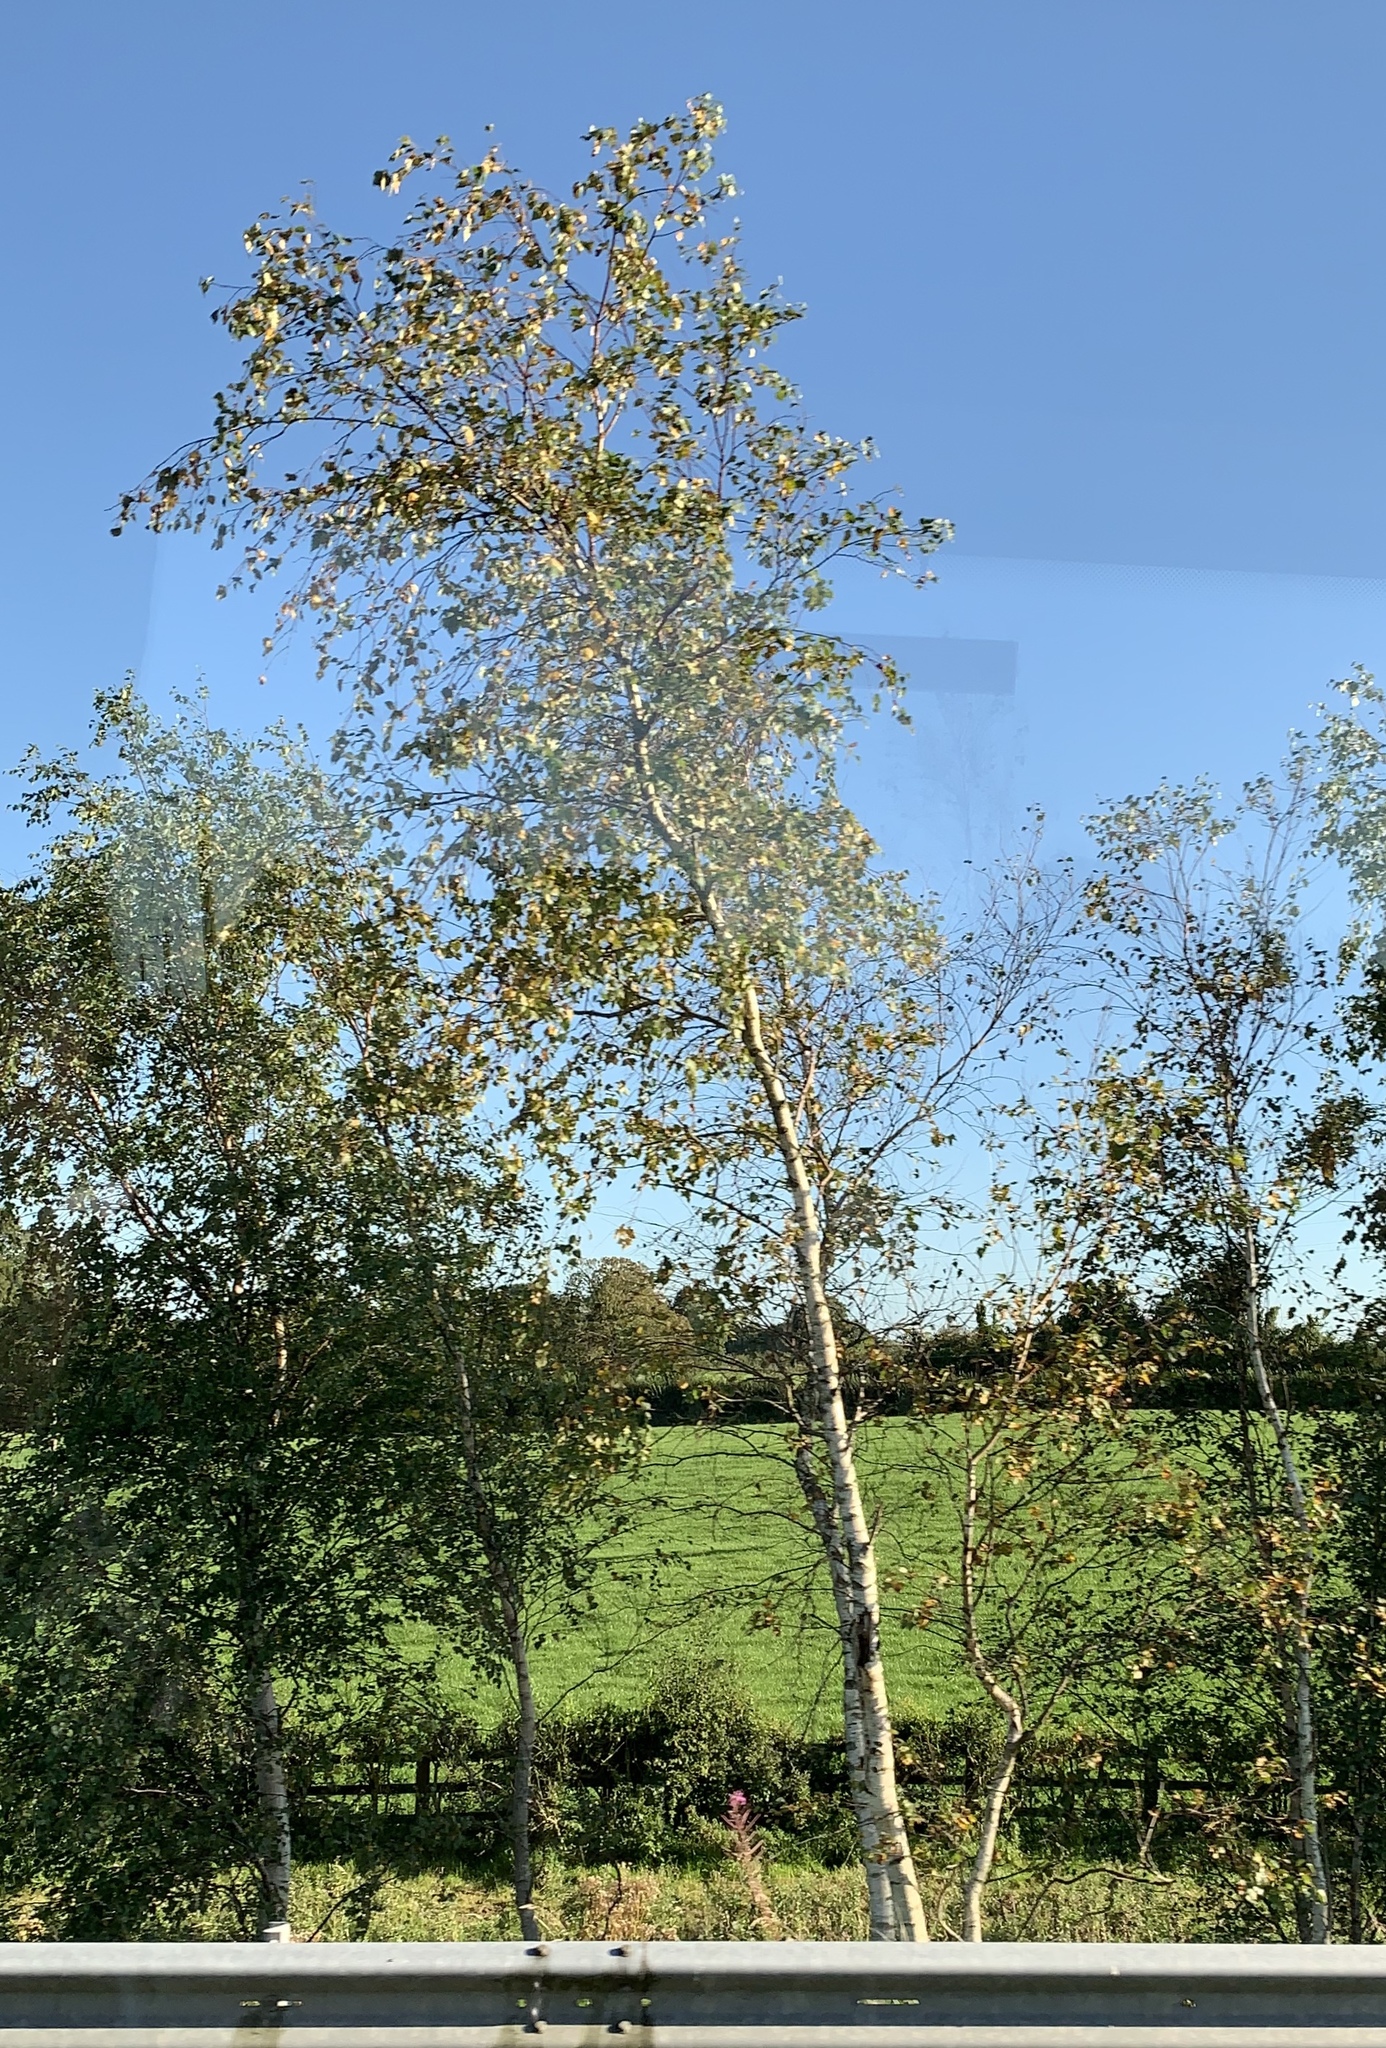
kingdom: Plantae
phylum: Tracheophyta
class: Magnoliopsida
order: Fagales
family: Betulaceae
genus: Betula
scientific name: Betula pendula
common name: Silver birch
